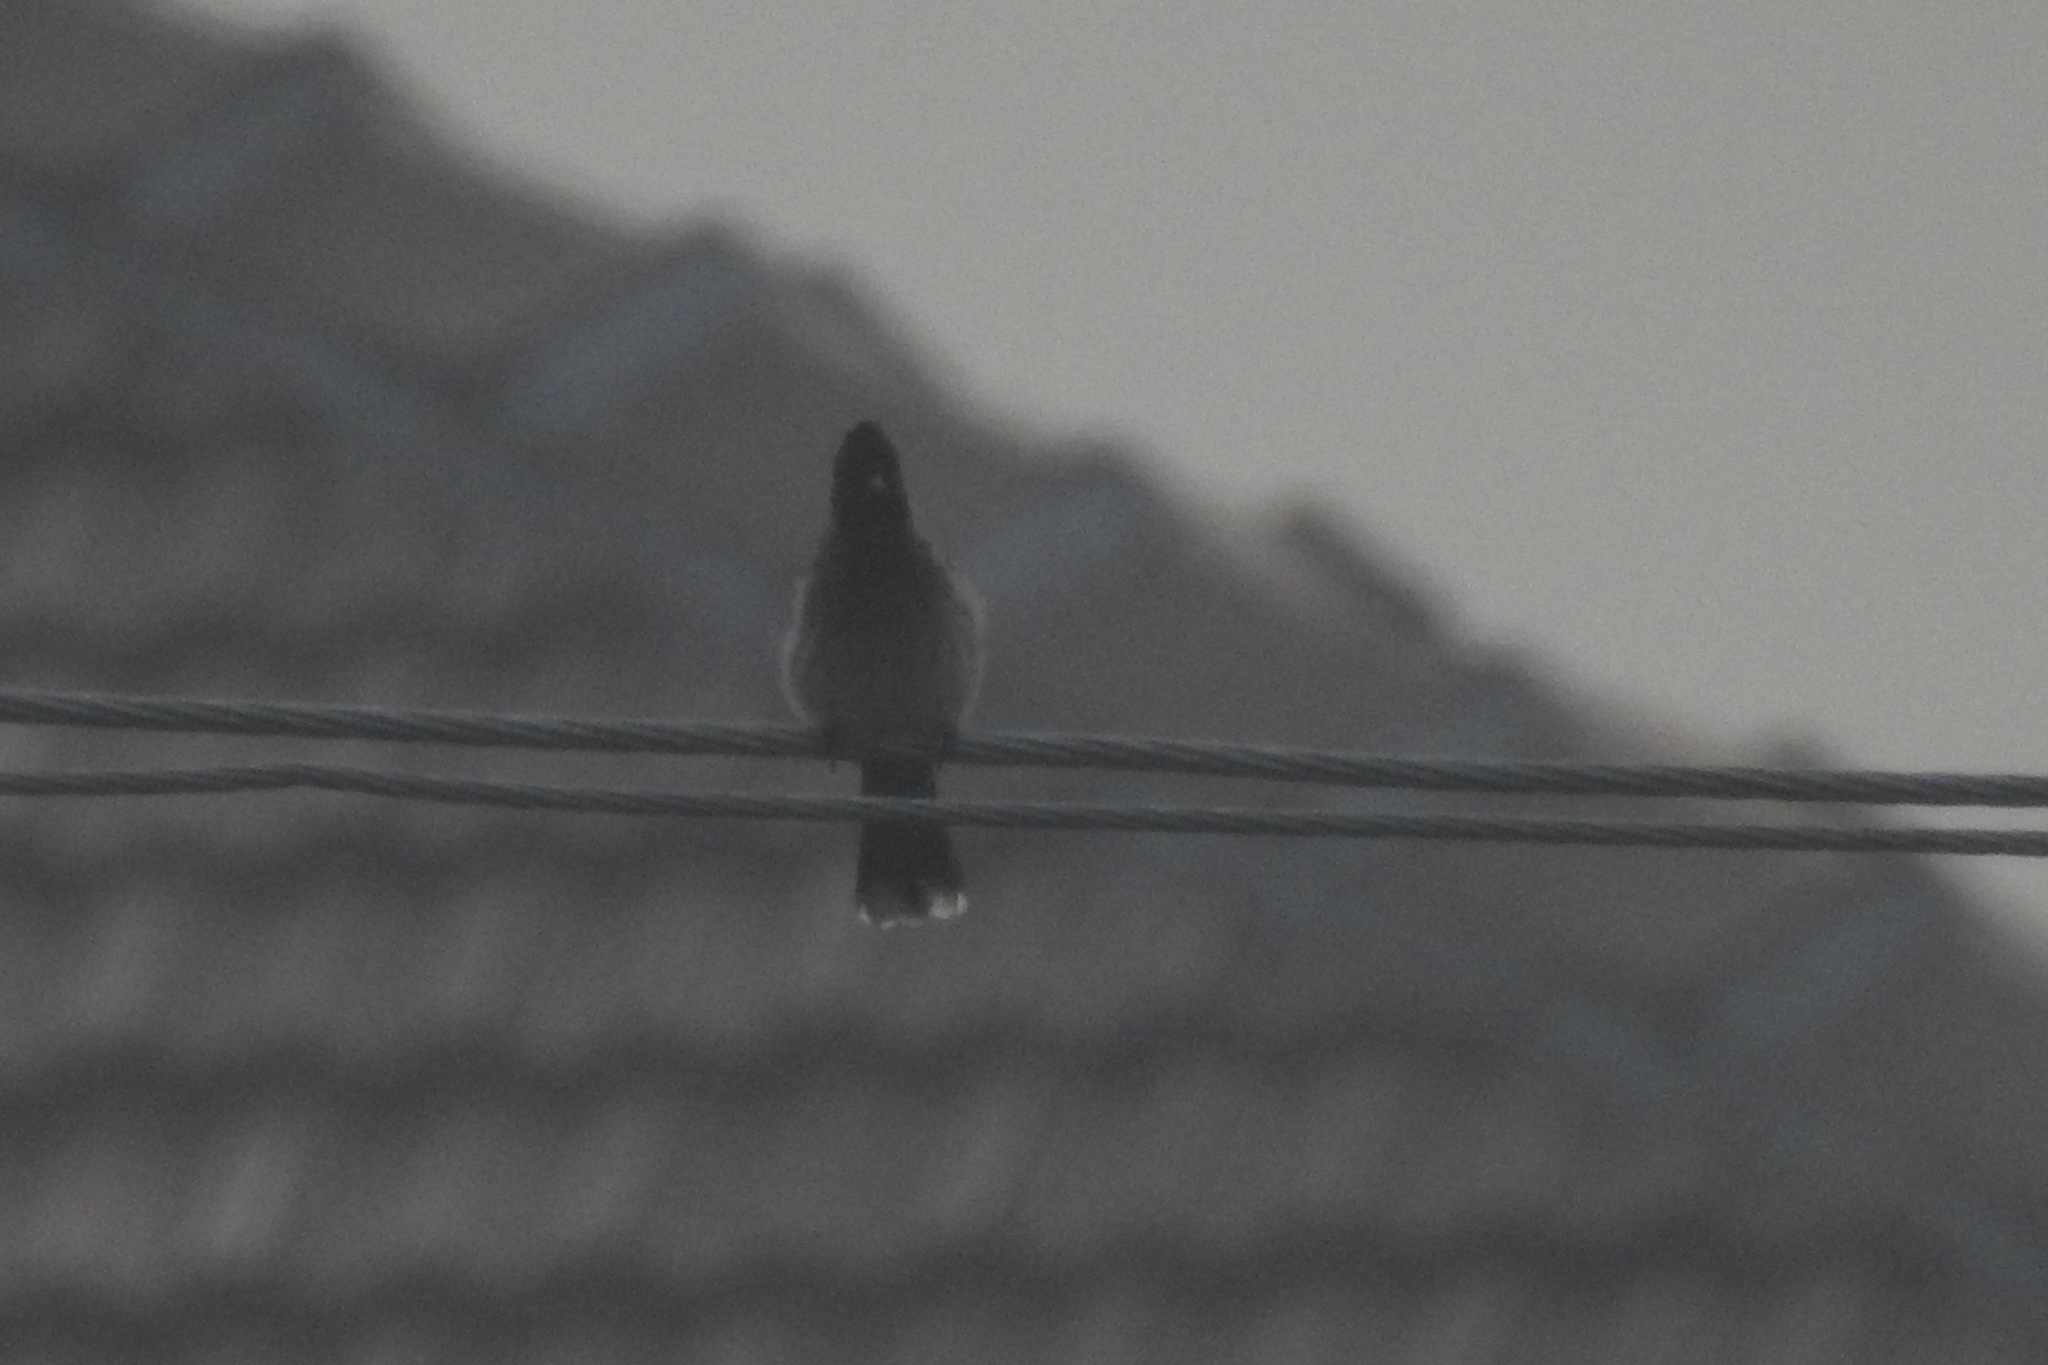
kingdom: Animalia
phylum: Chordata
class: Aves
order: Passeriformes
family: Pycnonotidae
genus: Pycnonotus
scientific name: Pycnonotus cafer
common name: Red-vented bulbul
